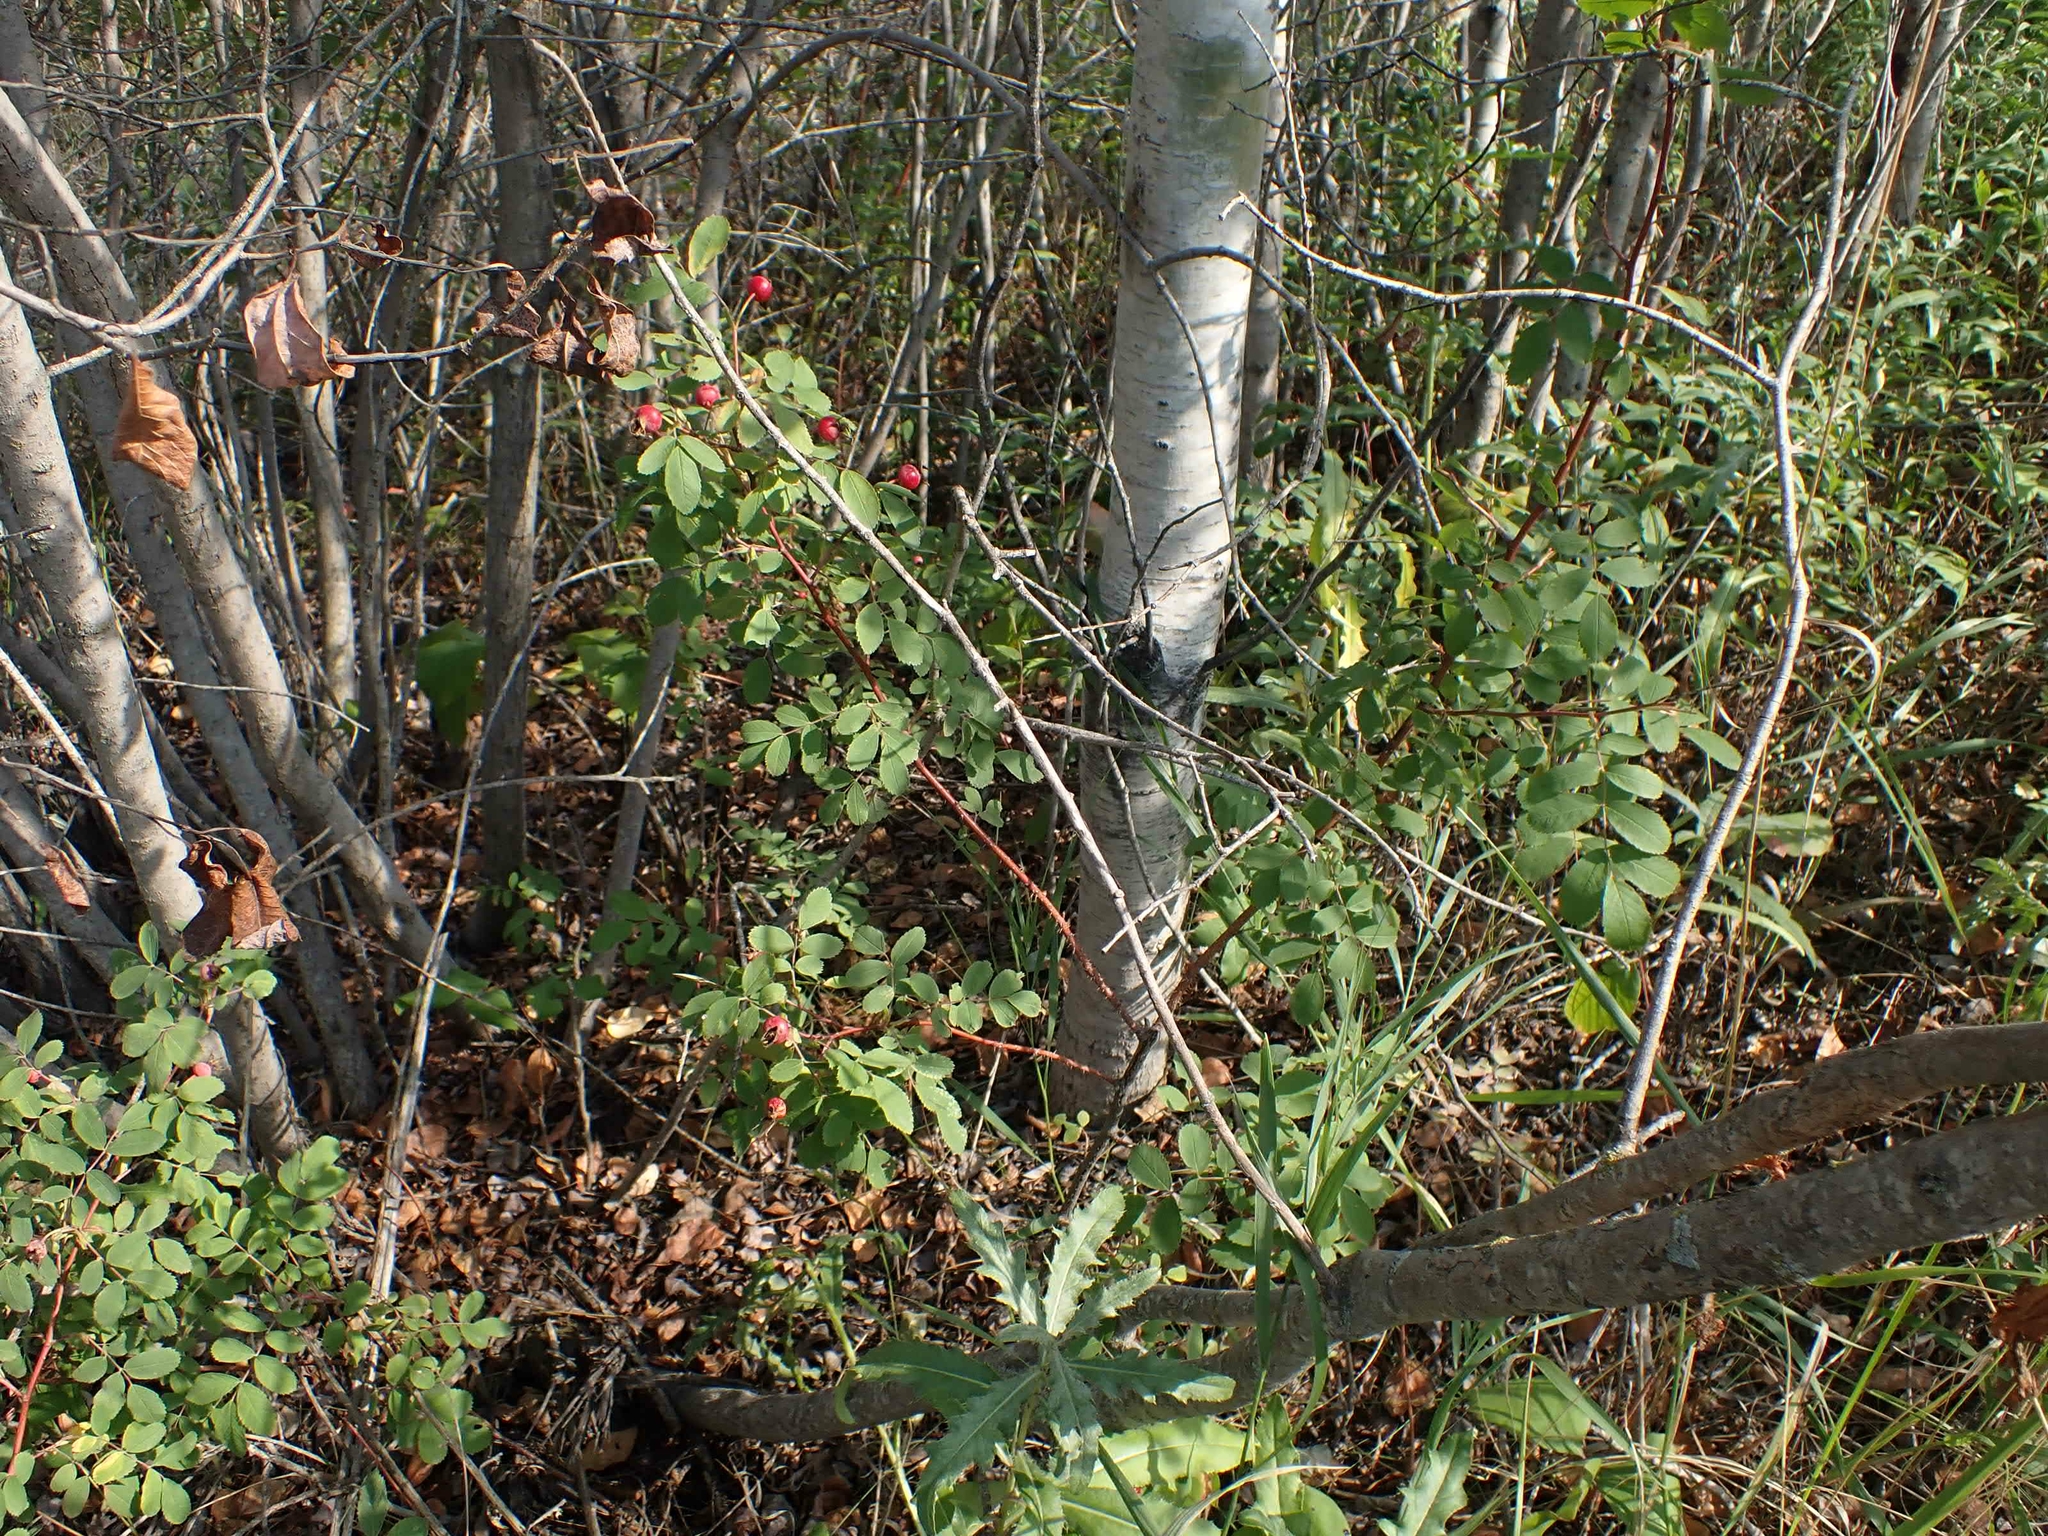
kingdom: Plantae
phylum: Tracheophyta
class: Magnoliopsida
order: Rosales
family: Rosaceae
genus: Rosa
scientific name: Rosa woodsii
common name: Woods's rose
